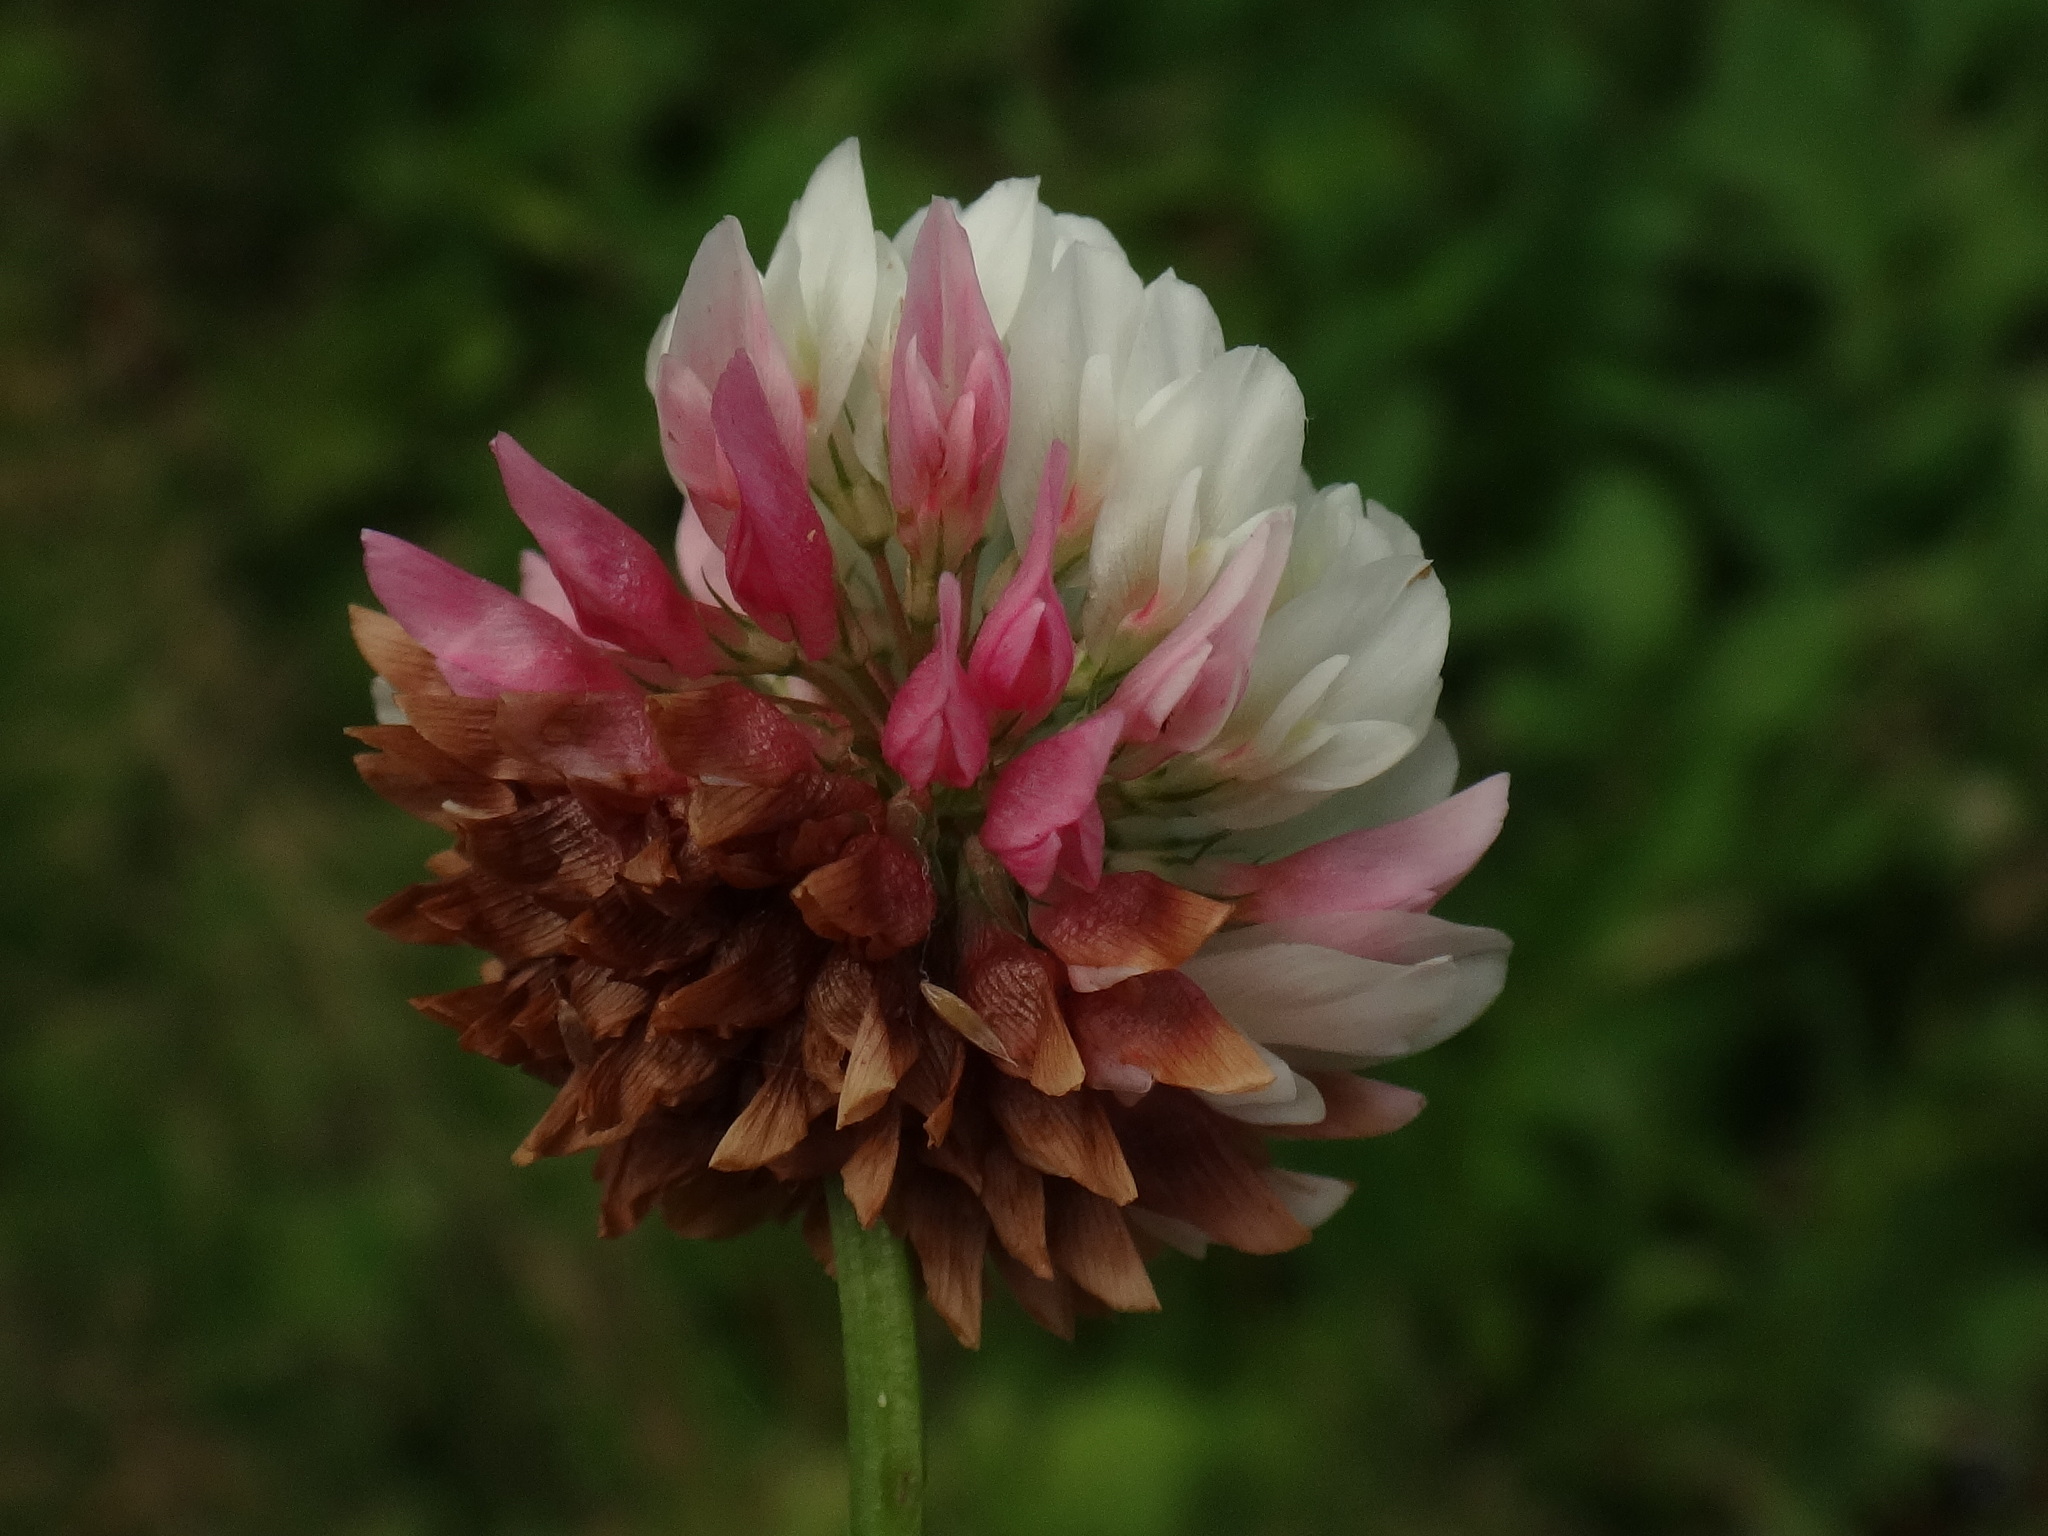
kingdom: Plantae
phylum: Tracheophyta
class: Magnoliopsida
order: Fabales
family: Fabaceae
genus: Trifolium
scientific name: Trifolium hybridum
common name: Alsike clover
